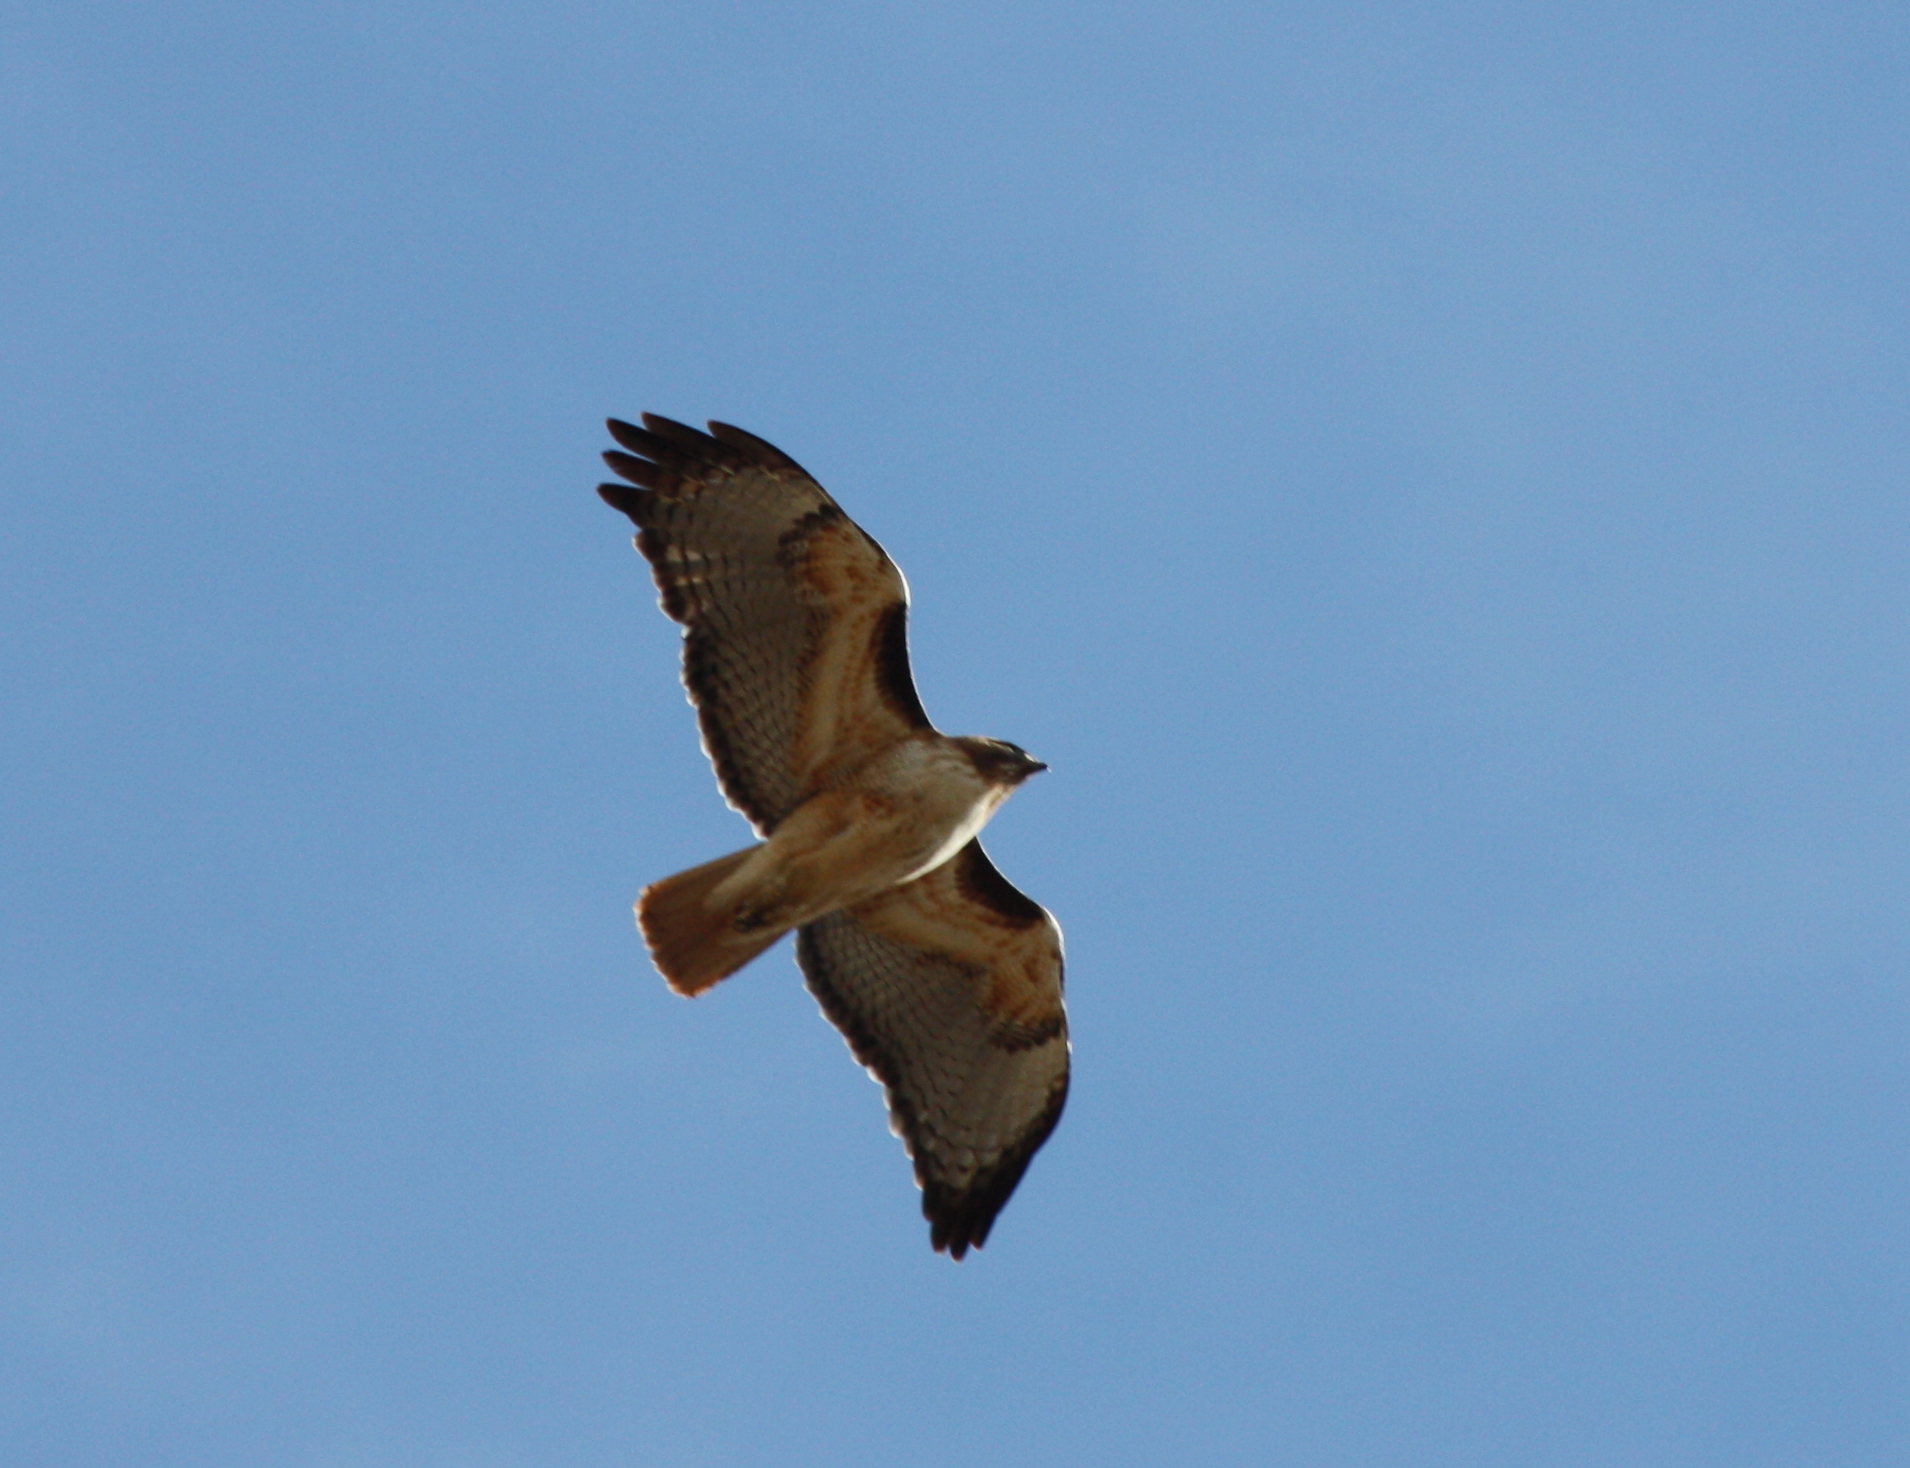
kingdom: Animalia
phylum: Chordata
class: Aves
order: Accipitriformes
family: Accipitridae
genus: Buteo
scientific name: Buteo jamaicensis
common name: Red-tailed hawk
